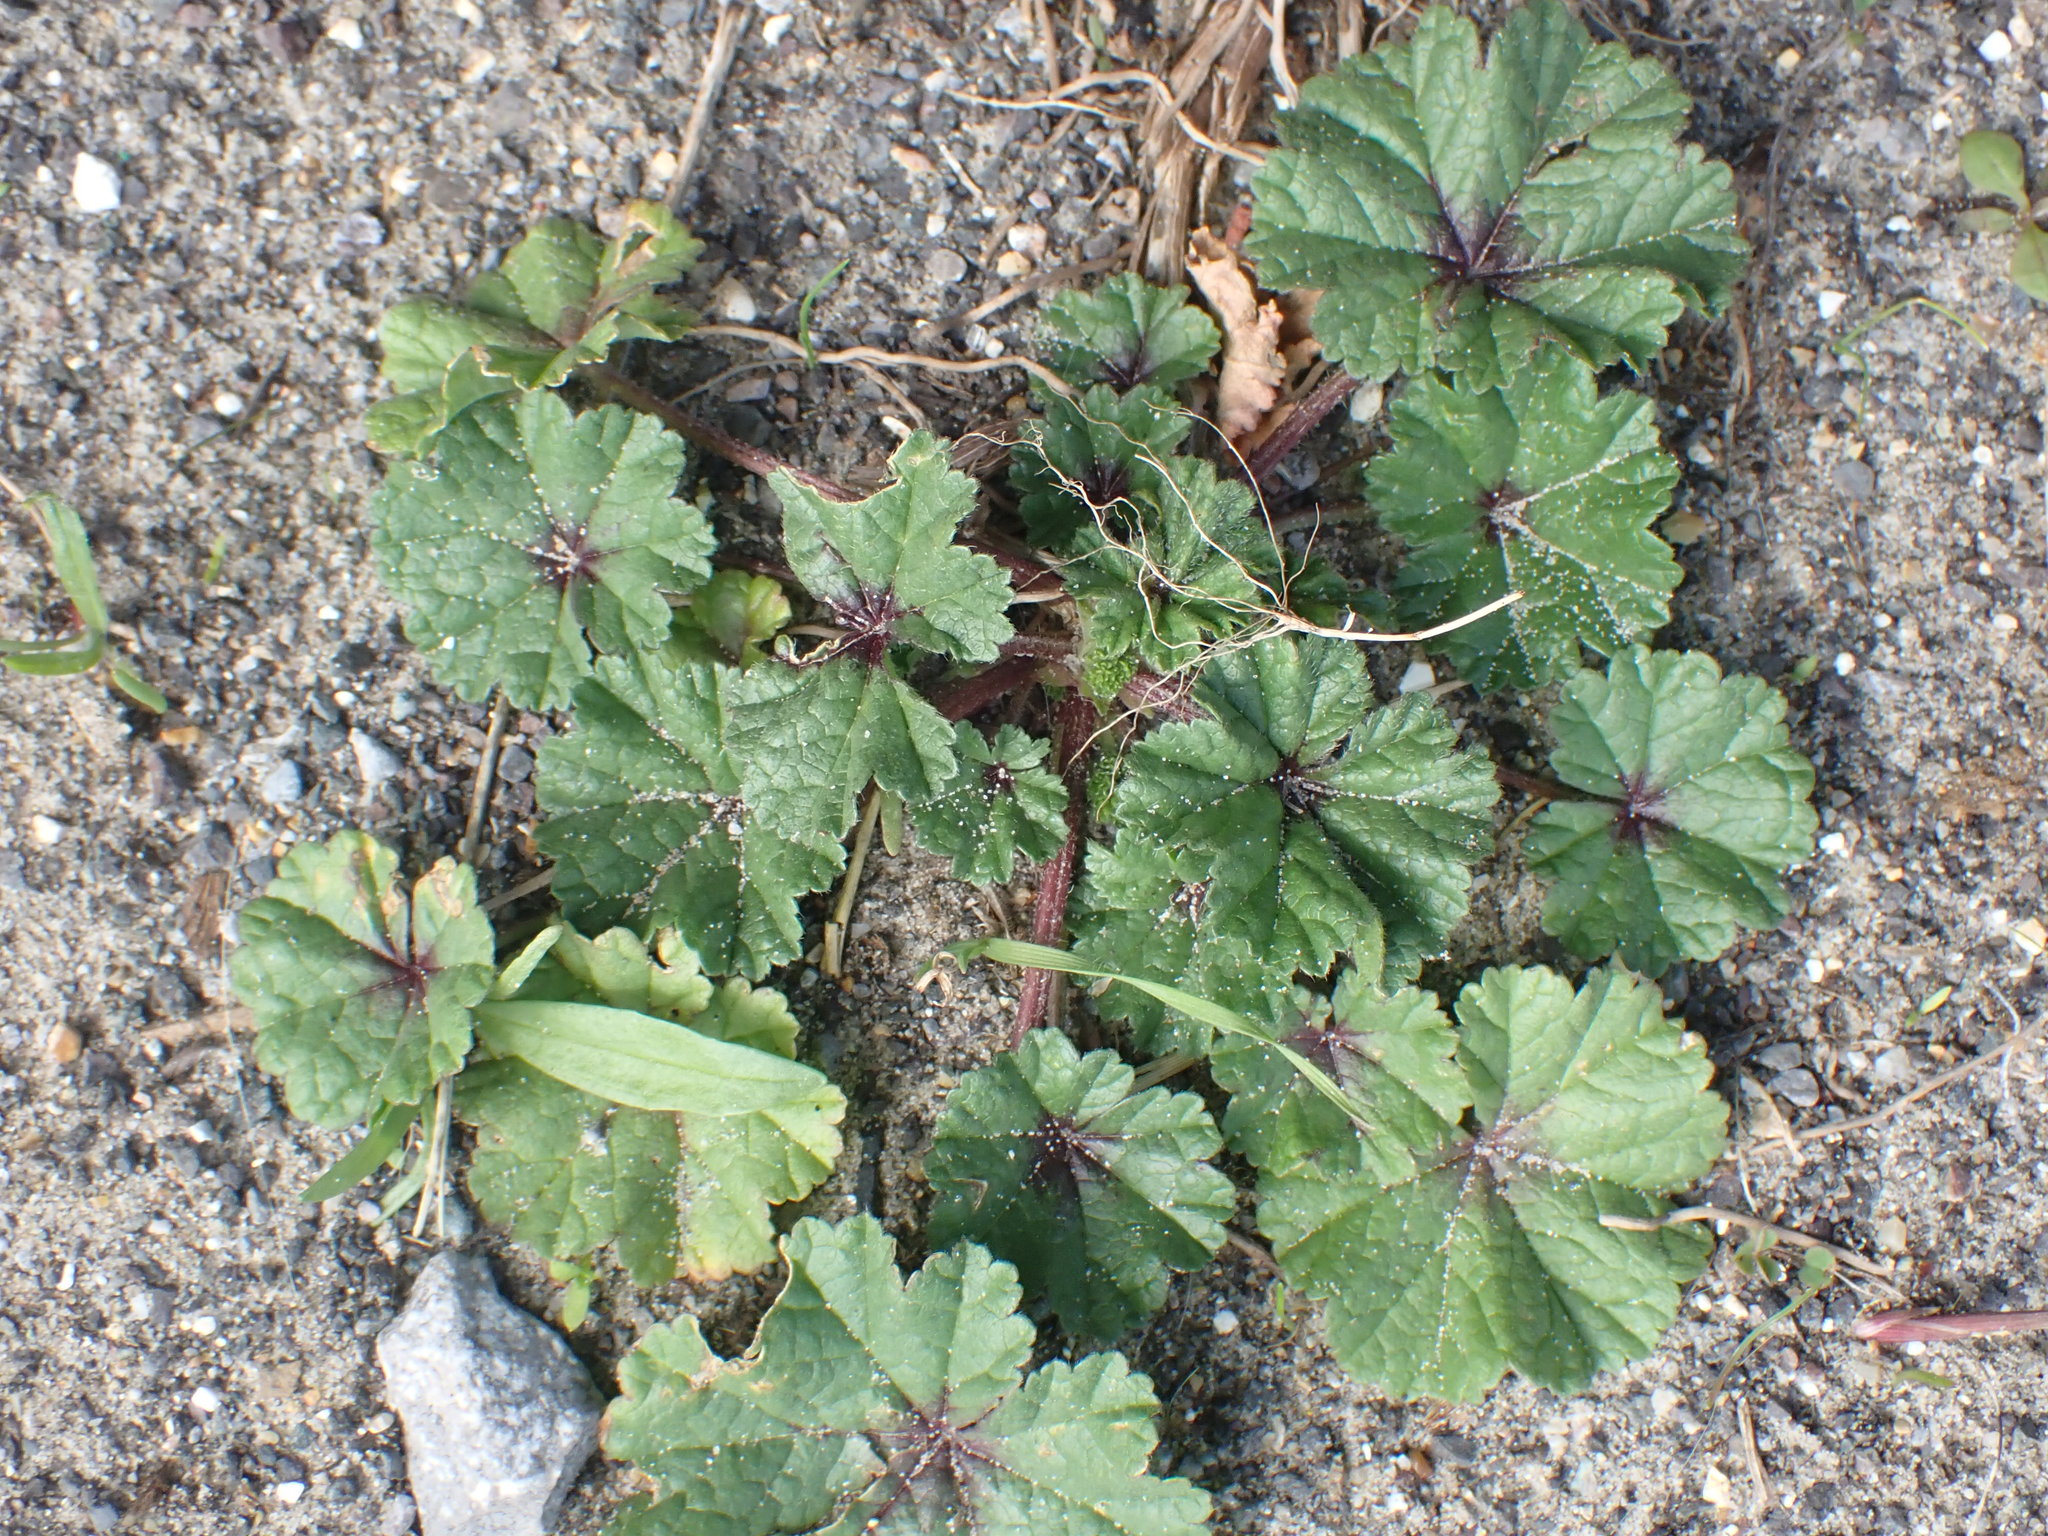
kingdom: Plantae
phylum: Tracheophyta
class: Magnoliopsida
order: Malvales
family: Malvaceae
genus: Malva
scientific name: Malva sylvestris
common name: Common mallow
